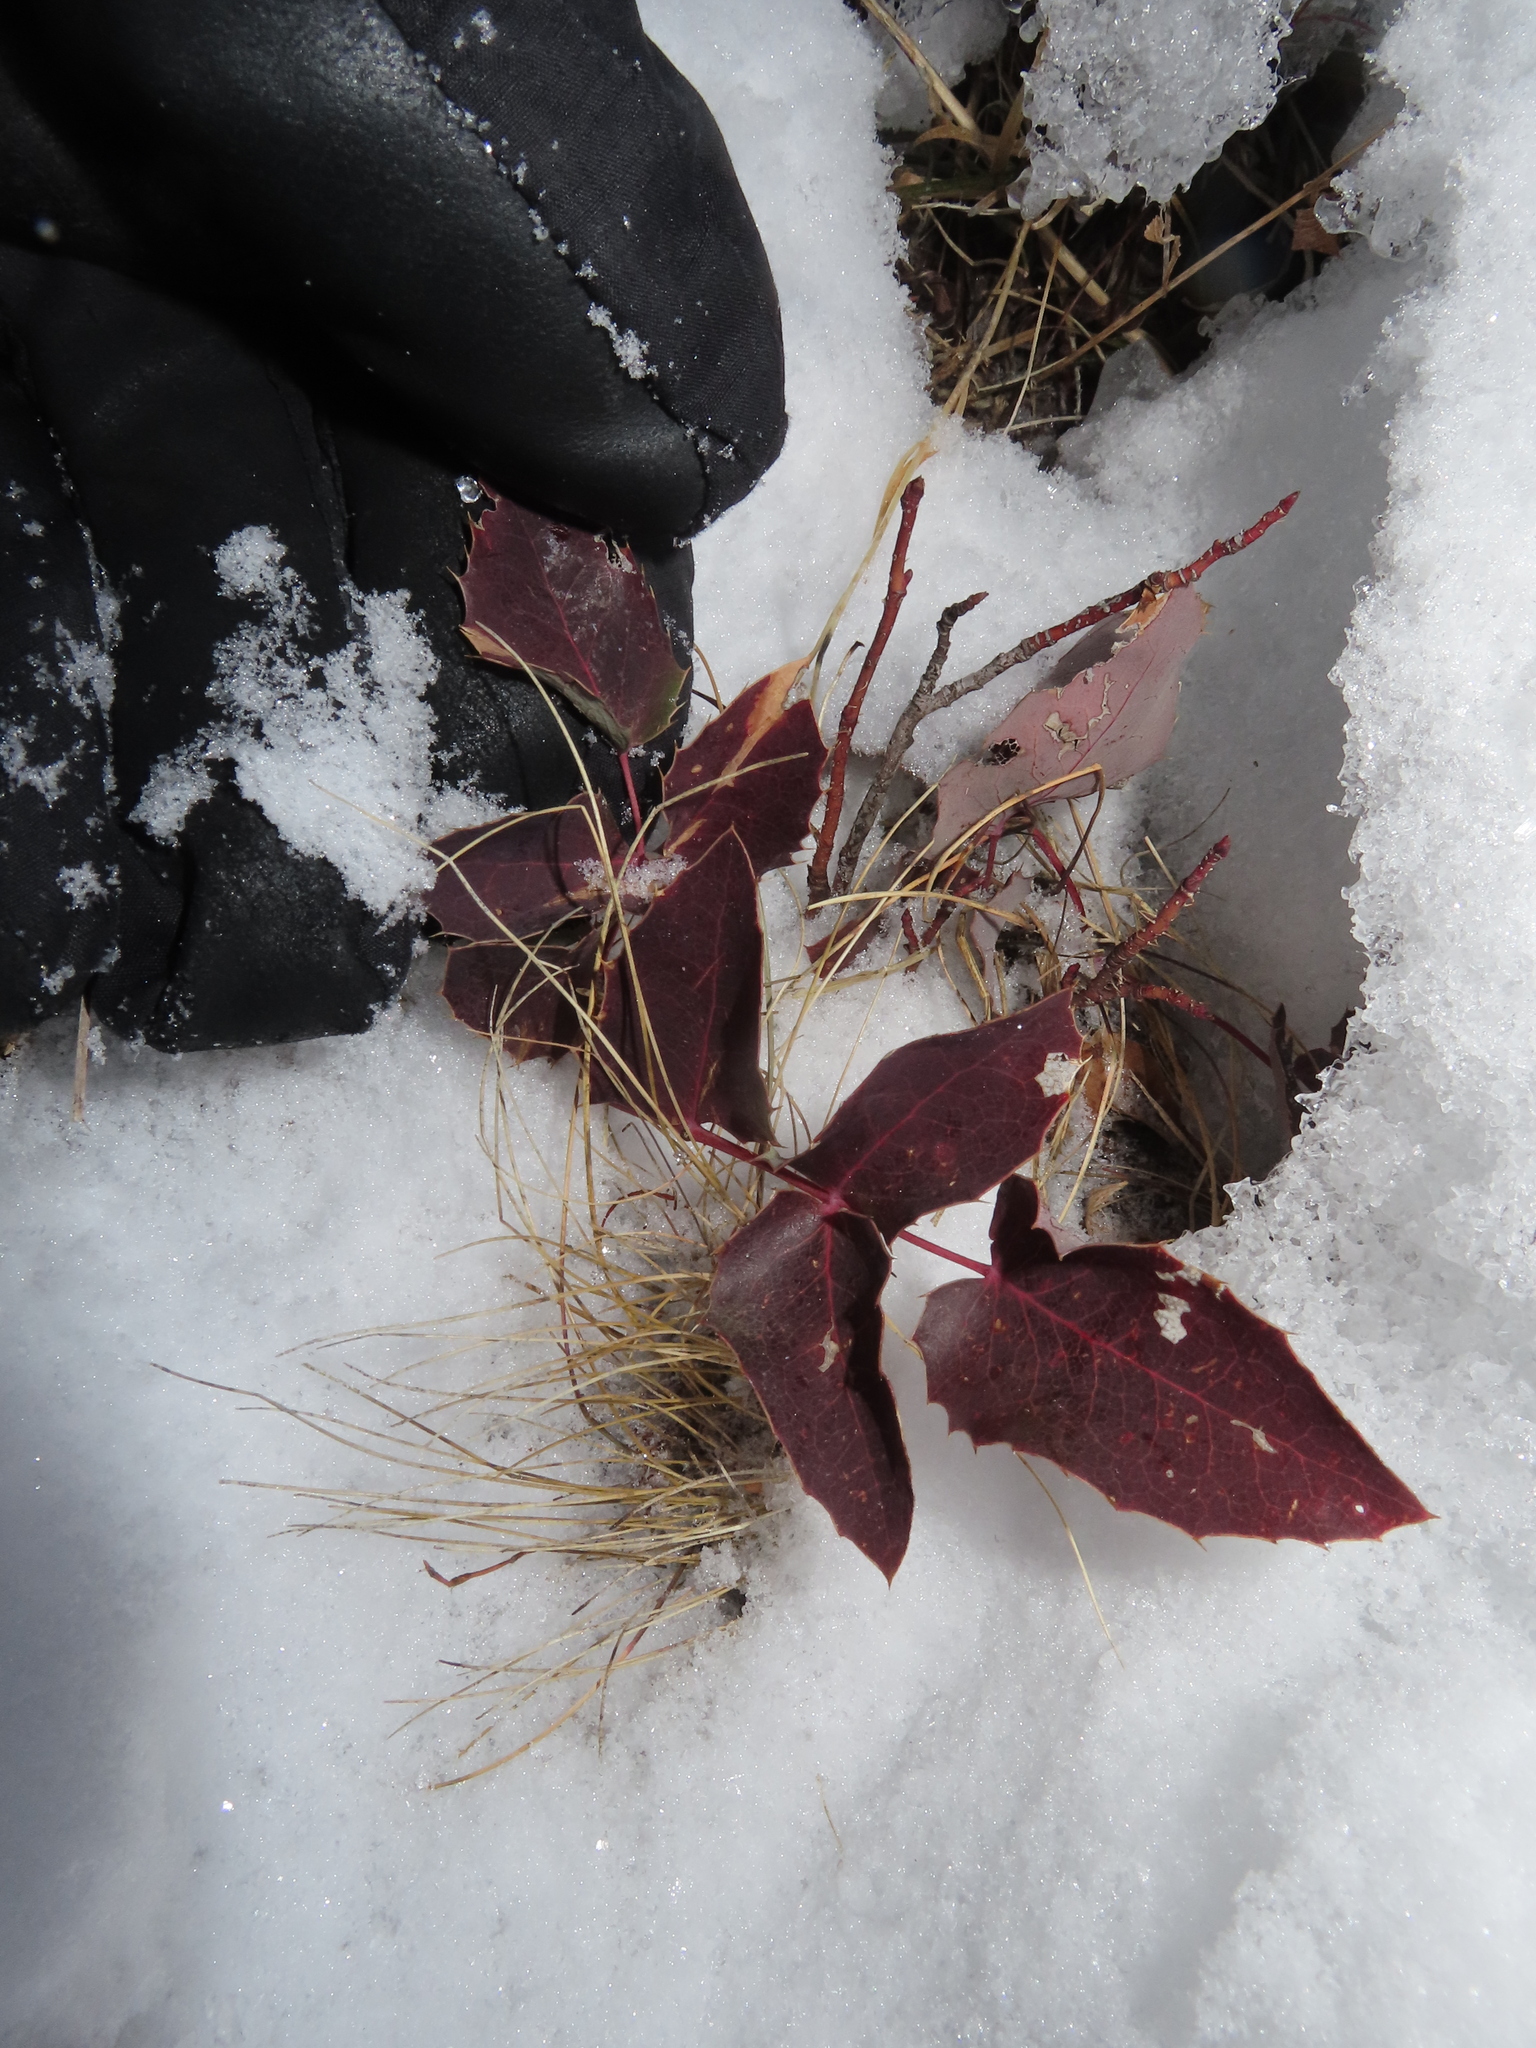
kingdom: Plantae
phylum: Tracheophyta
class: Magnoliopsida
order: Ranunculales
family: Berberidaceae
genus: Mahonia
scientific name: Mahonia repens
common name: Creeping oregon-grape
